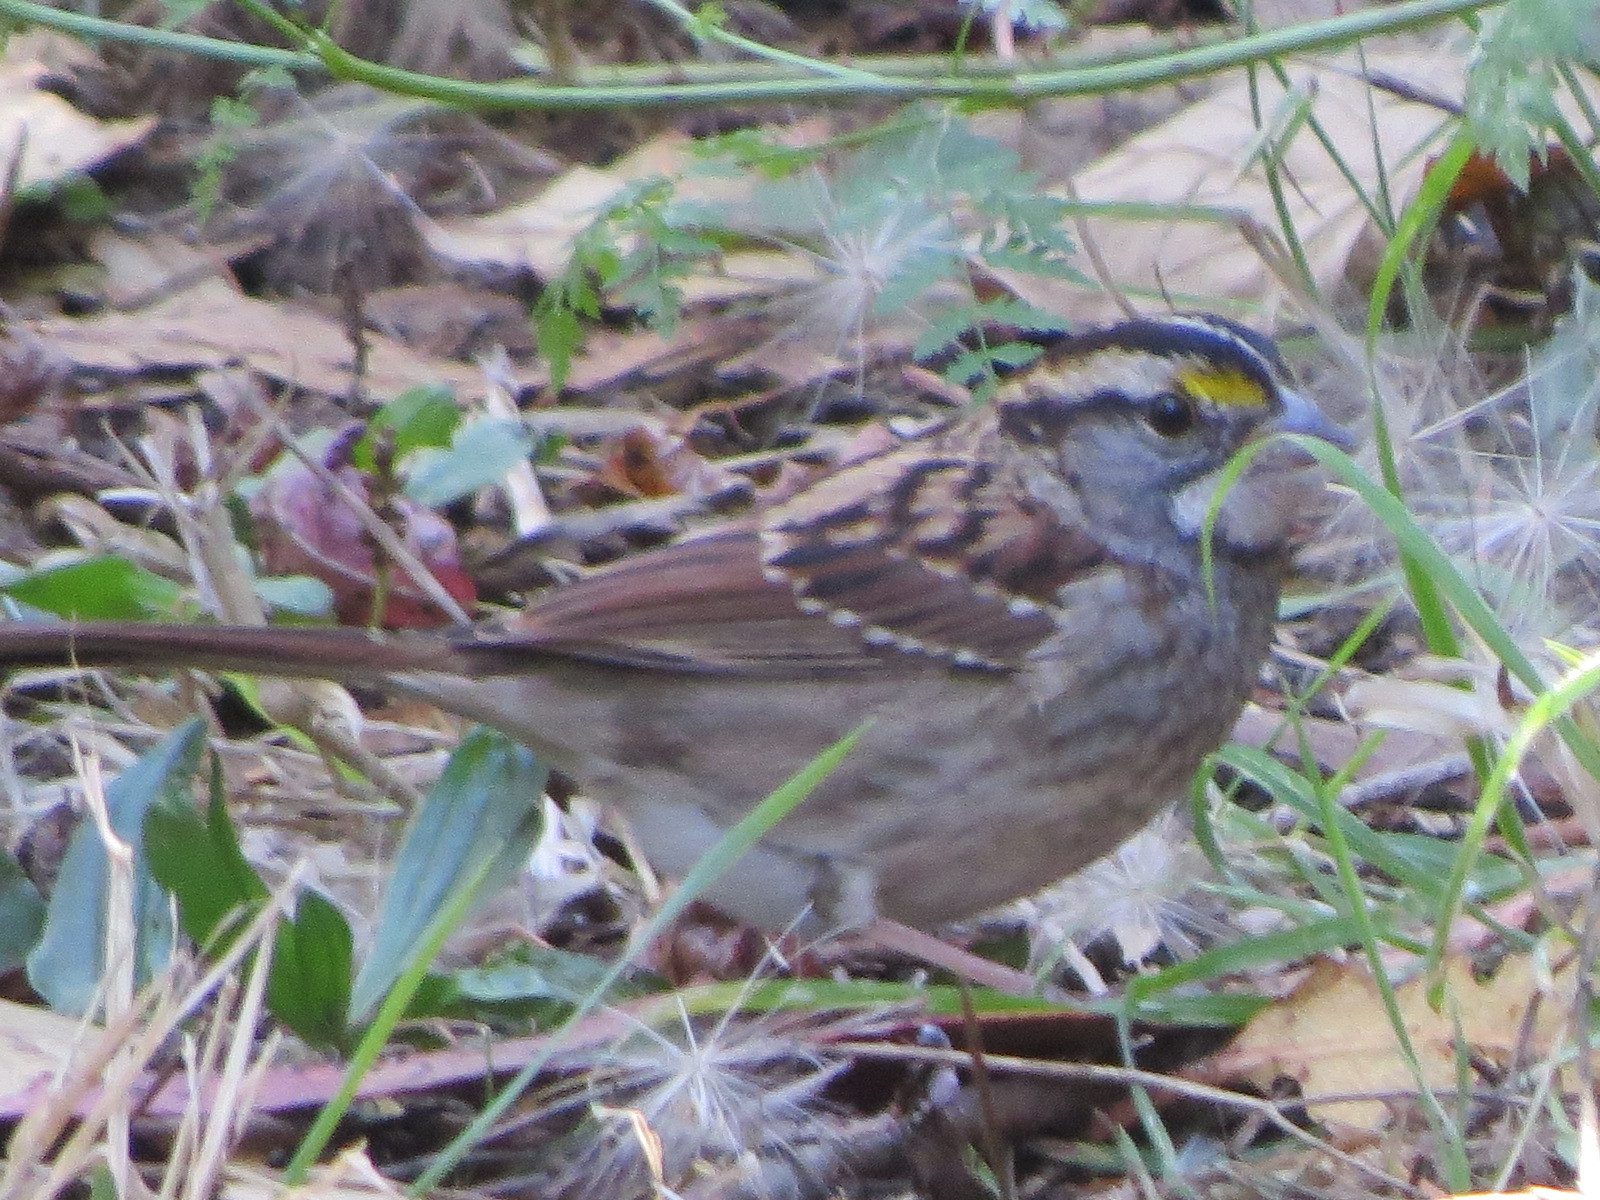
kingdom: Animalia
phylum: Chordata
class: Aves
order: Passeriformes
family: Passerellidae
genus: Zonotrichia
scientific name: Zonotrichia albicollis
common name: White-throated sparrow
